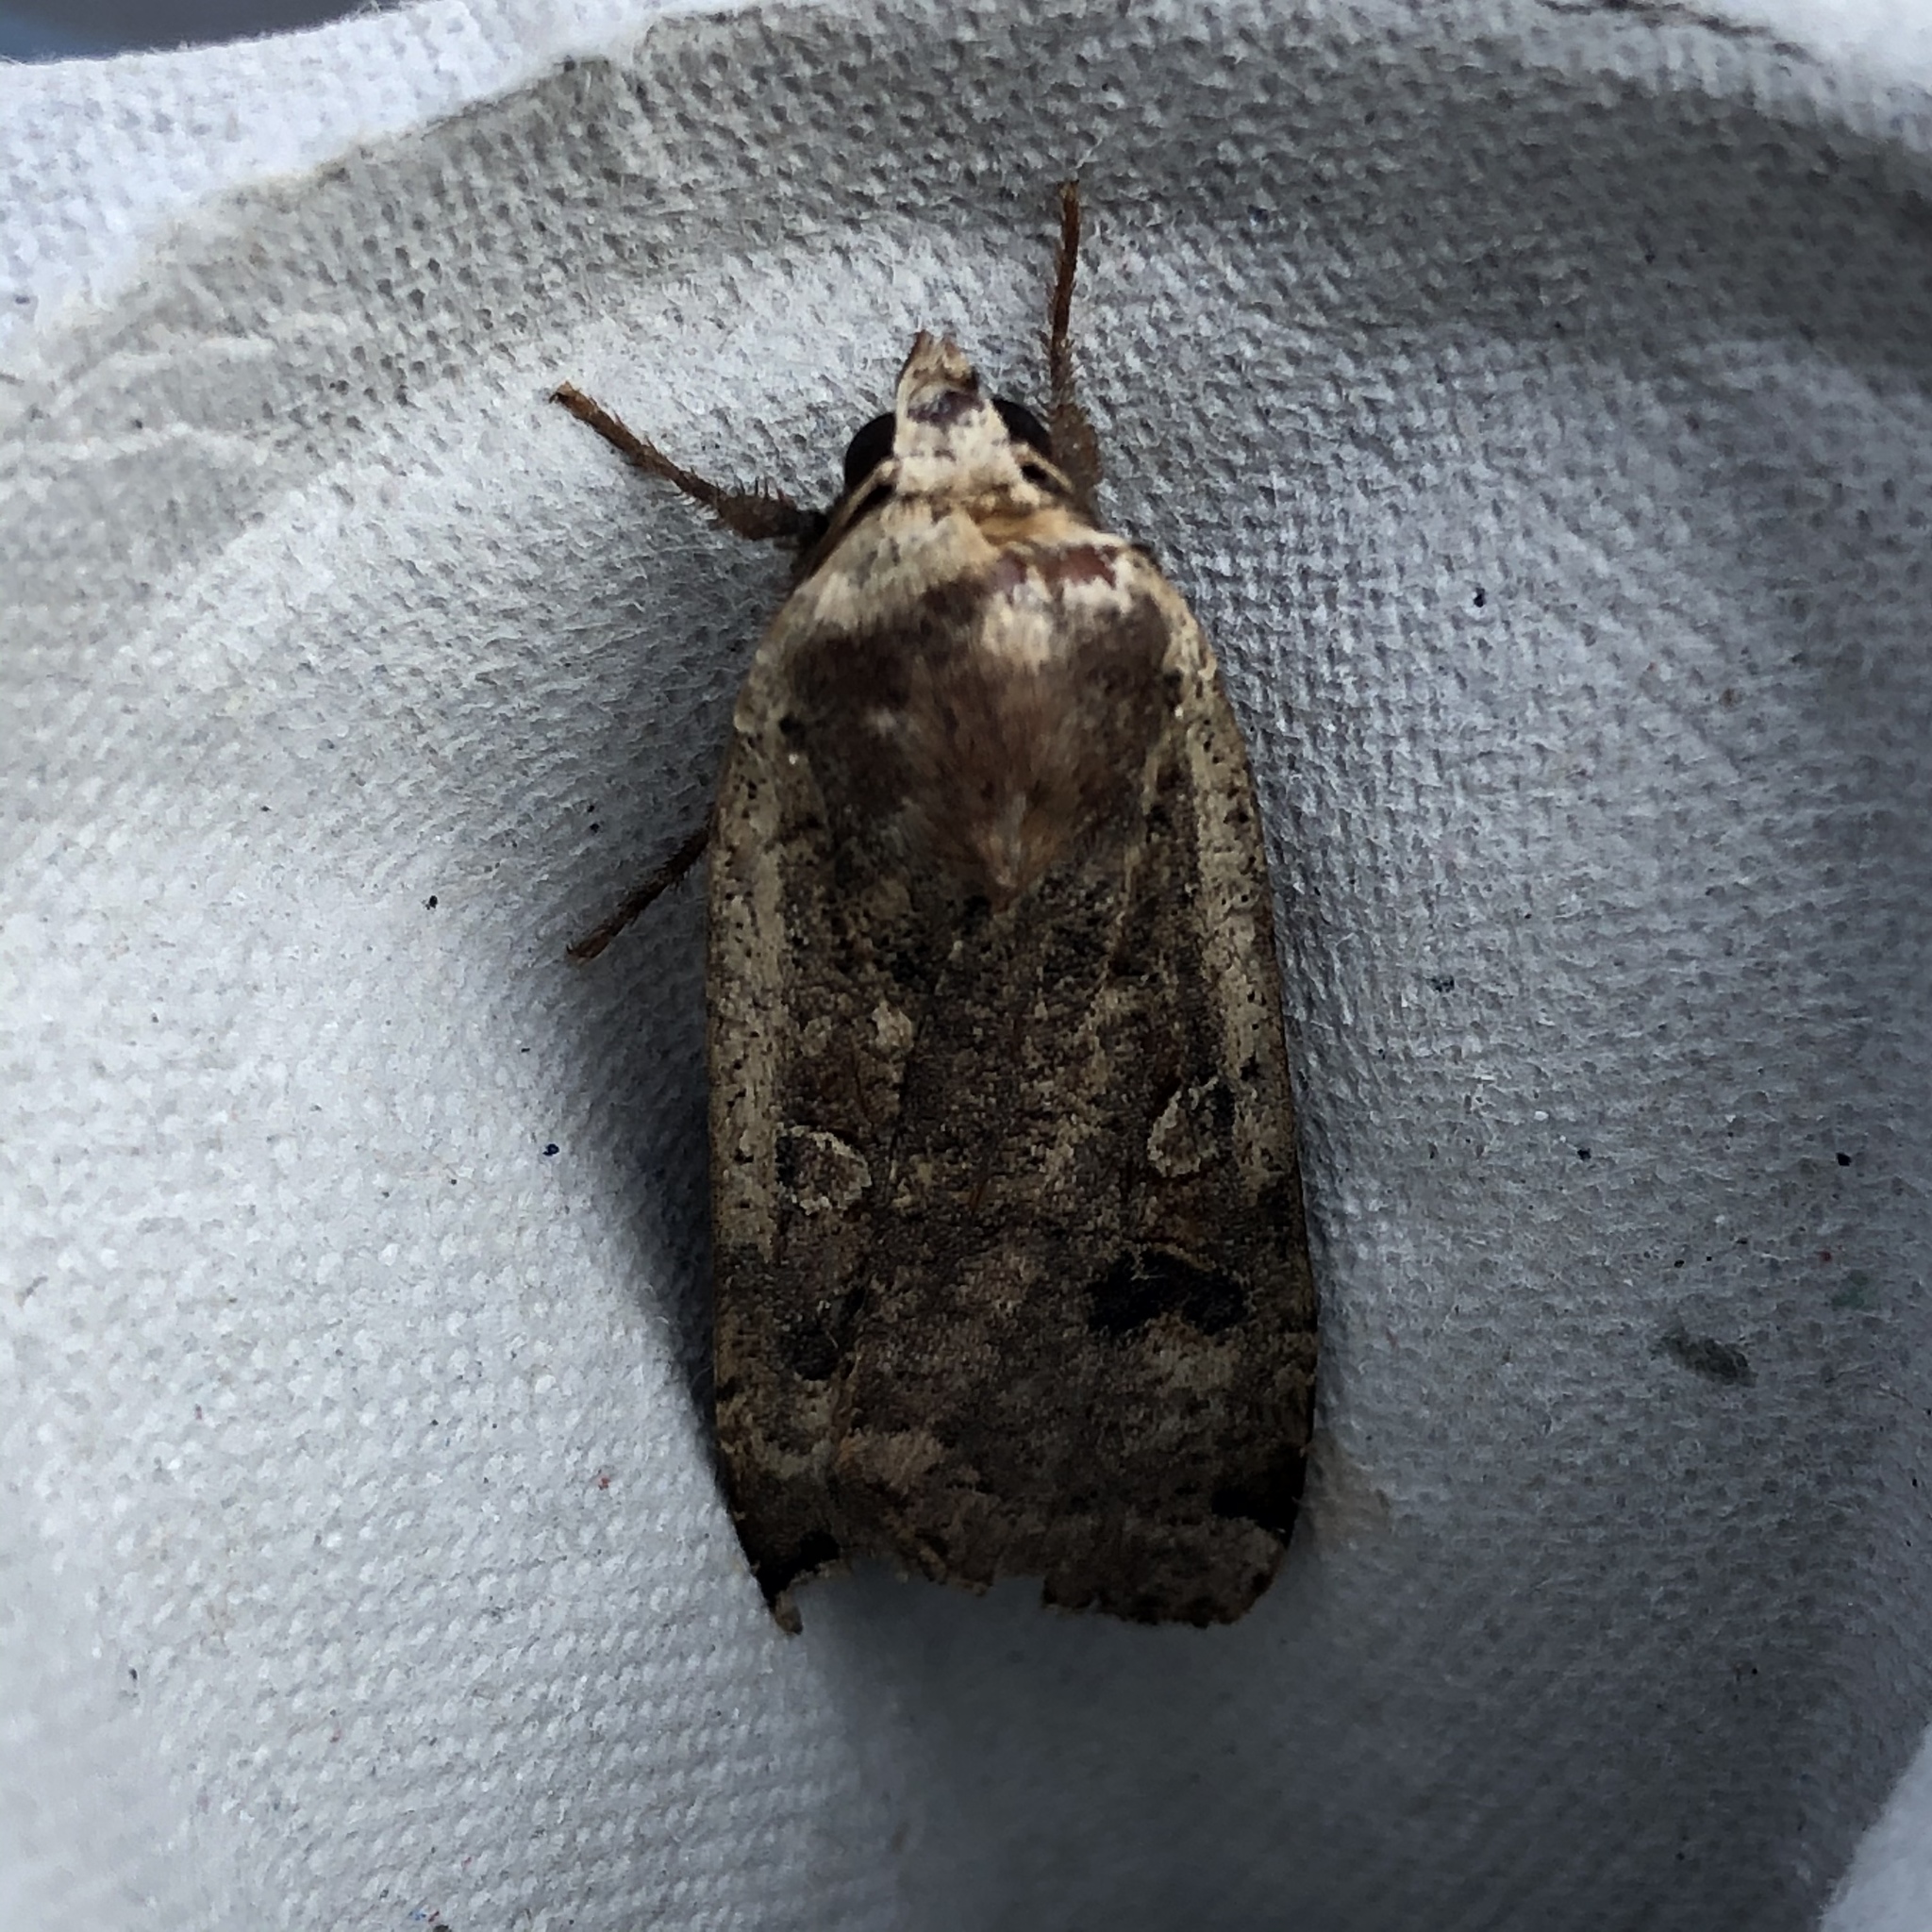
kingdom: Animalia
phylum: Arthropoda
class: Insecta
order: Lepidoptera
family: Noctuidae
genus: Noctua
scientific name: Noctua pronuba
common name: Large yellow underwing
